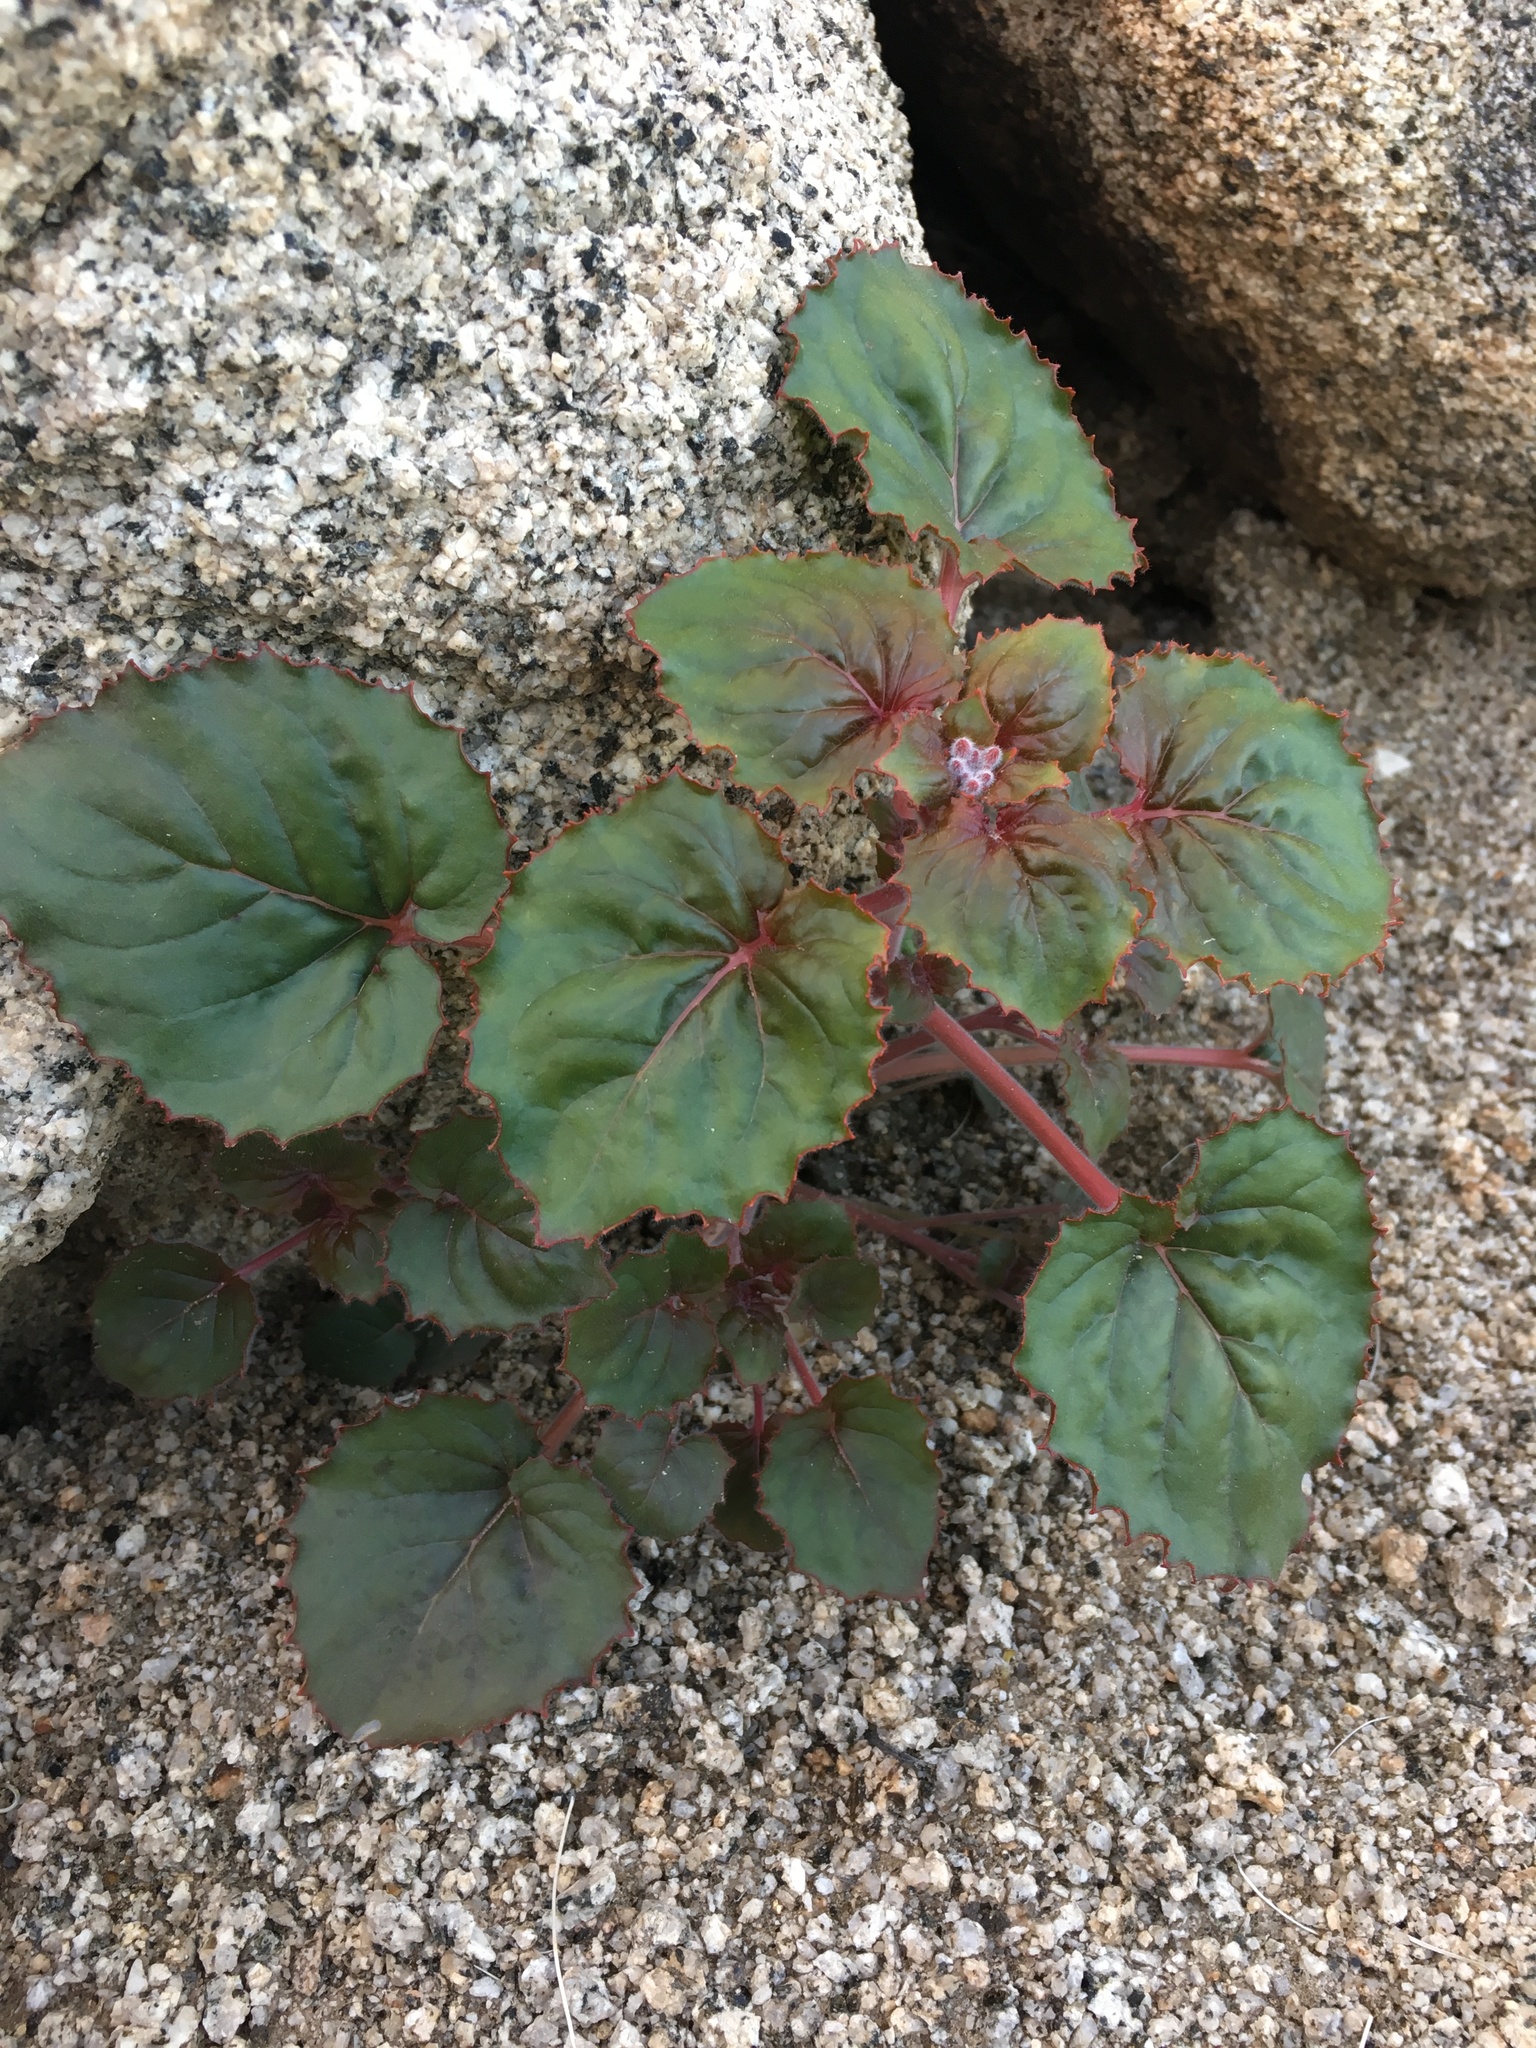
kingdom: Plantae
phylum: Tracheophyta
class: Magnoliopsida
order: Myrtales
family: Onagraceae
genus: Chylismia
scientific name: Chylismia cardiophylla
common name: Heartleaf suncup
